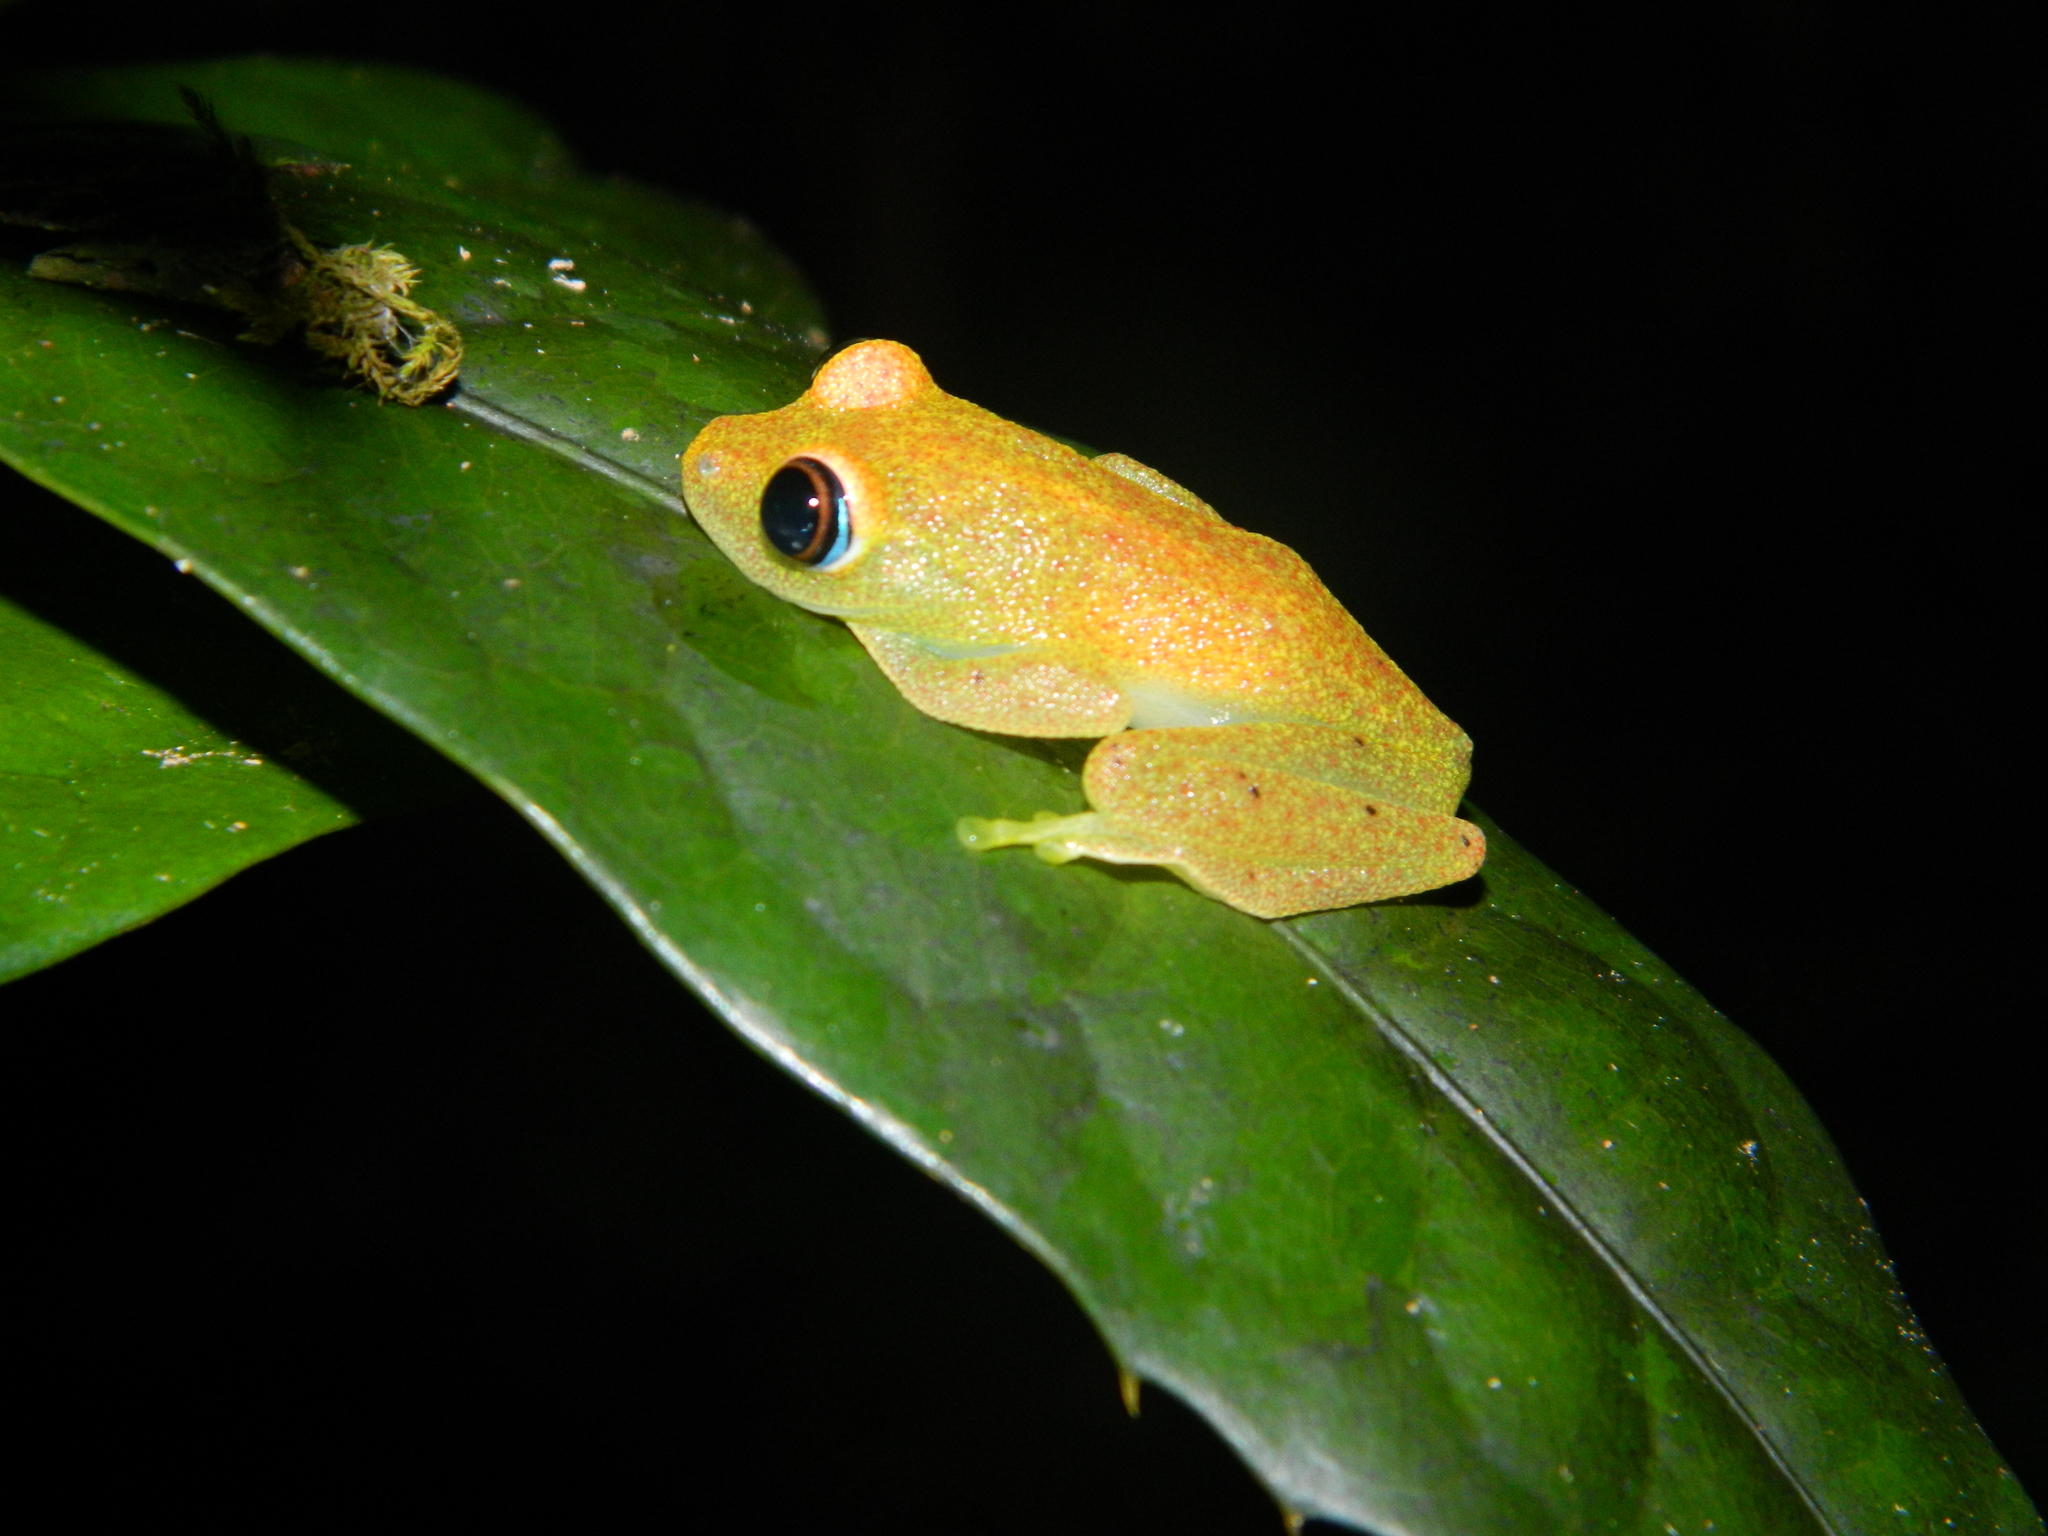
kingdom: Animalia
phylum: Chordata
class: Amphibia
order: Anura
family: Mantellidae
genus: Boophis
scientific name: Boophis viridis
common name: Green bright-eyed frog
